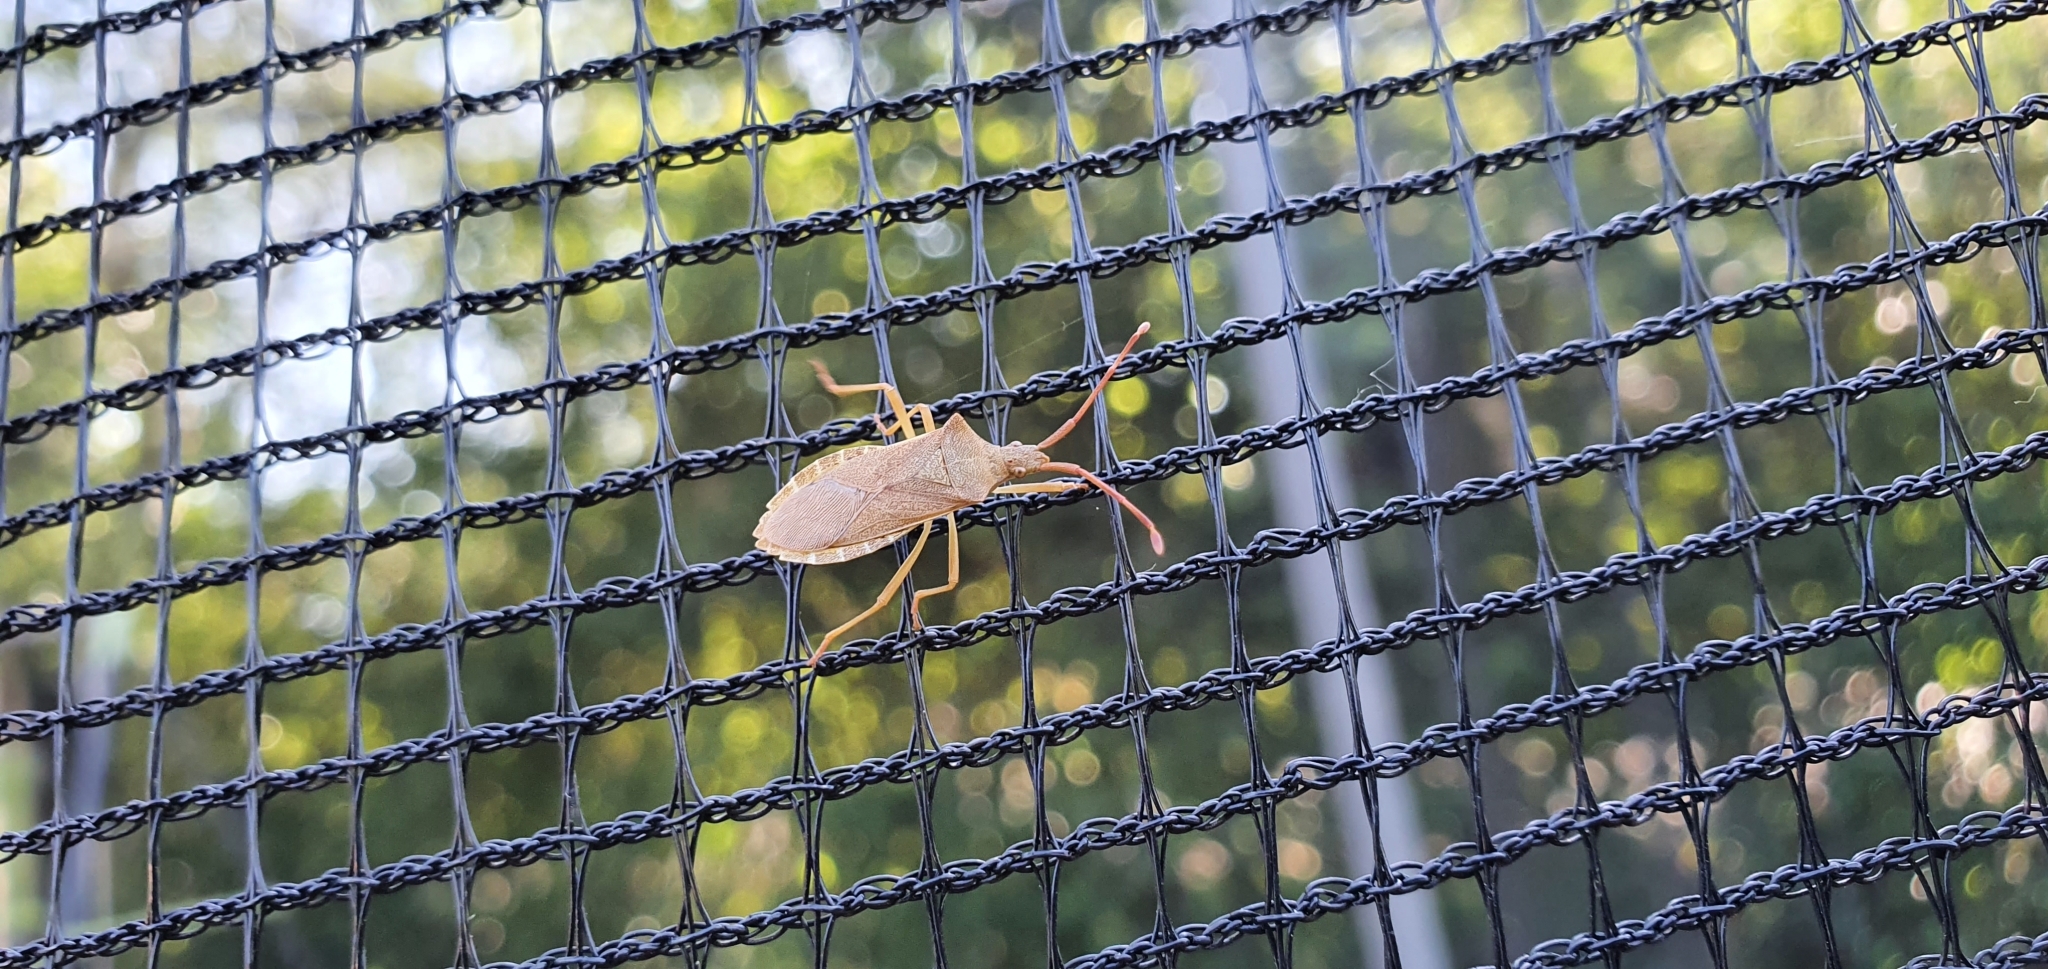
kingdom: Animalia
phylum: Arthropoda
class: Insecta
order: Hemiptera
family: Coreidae
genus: Gonocerus
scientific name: Gonocerus acuteangulatus
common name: Box bug
